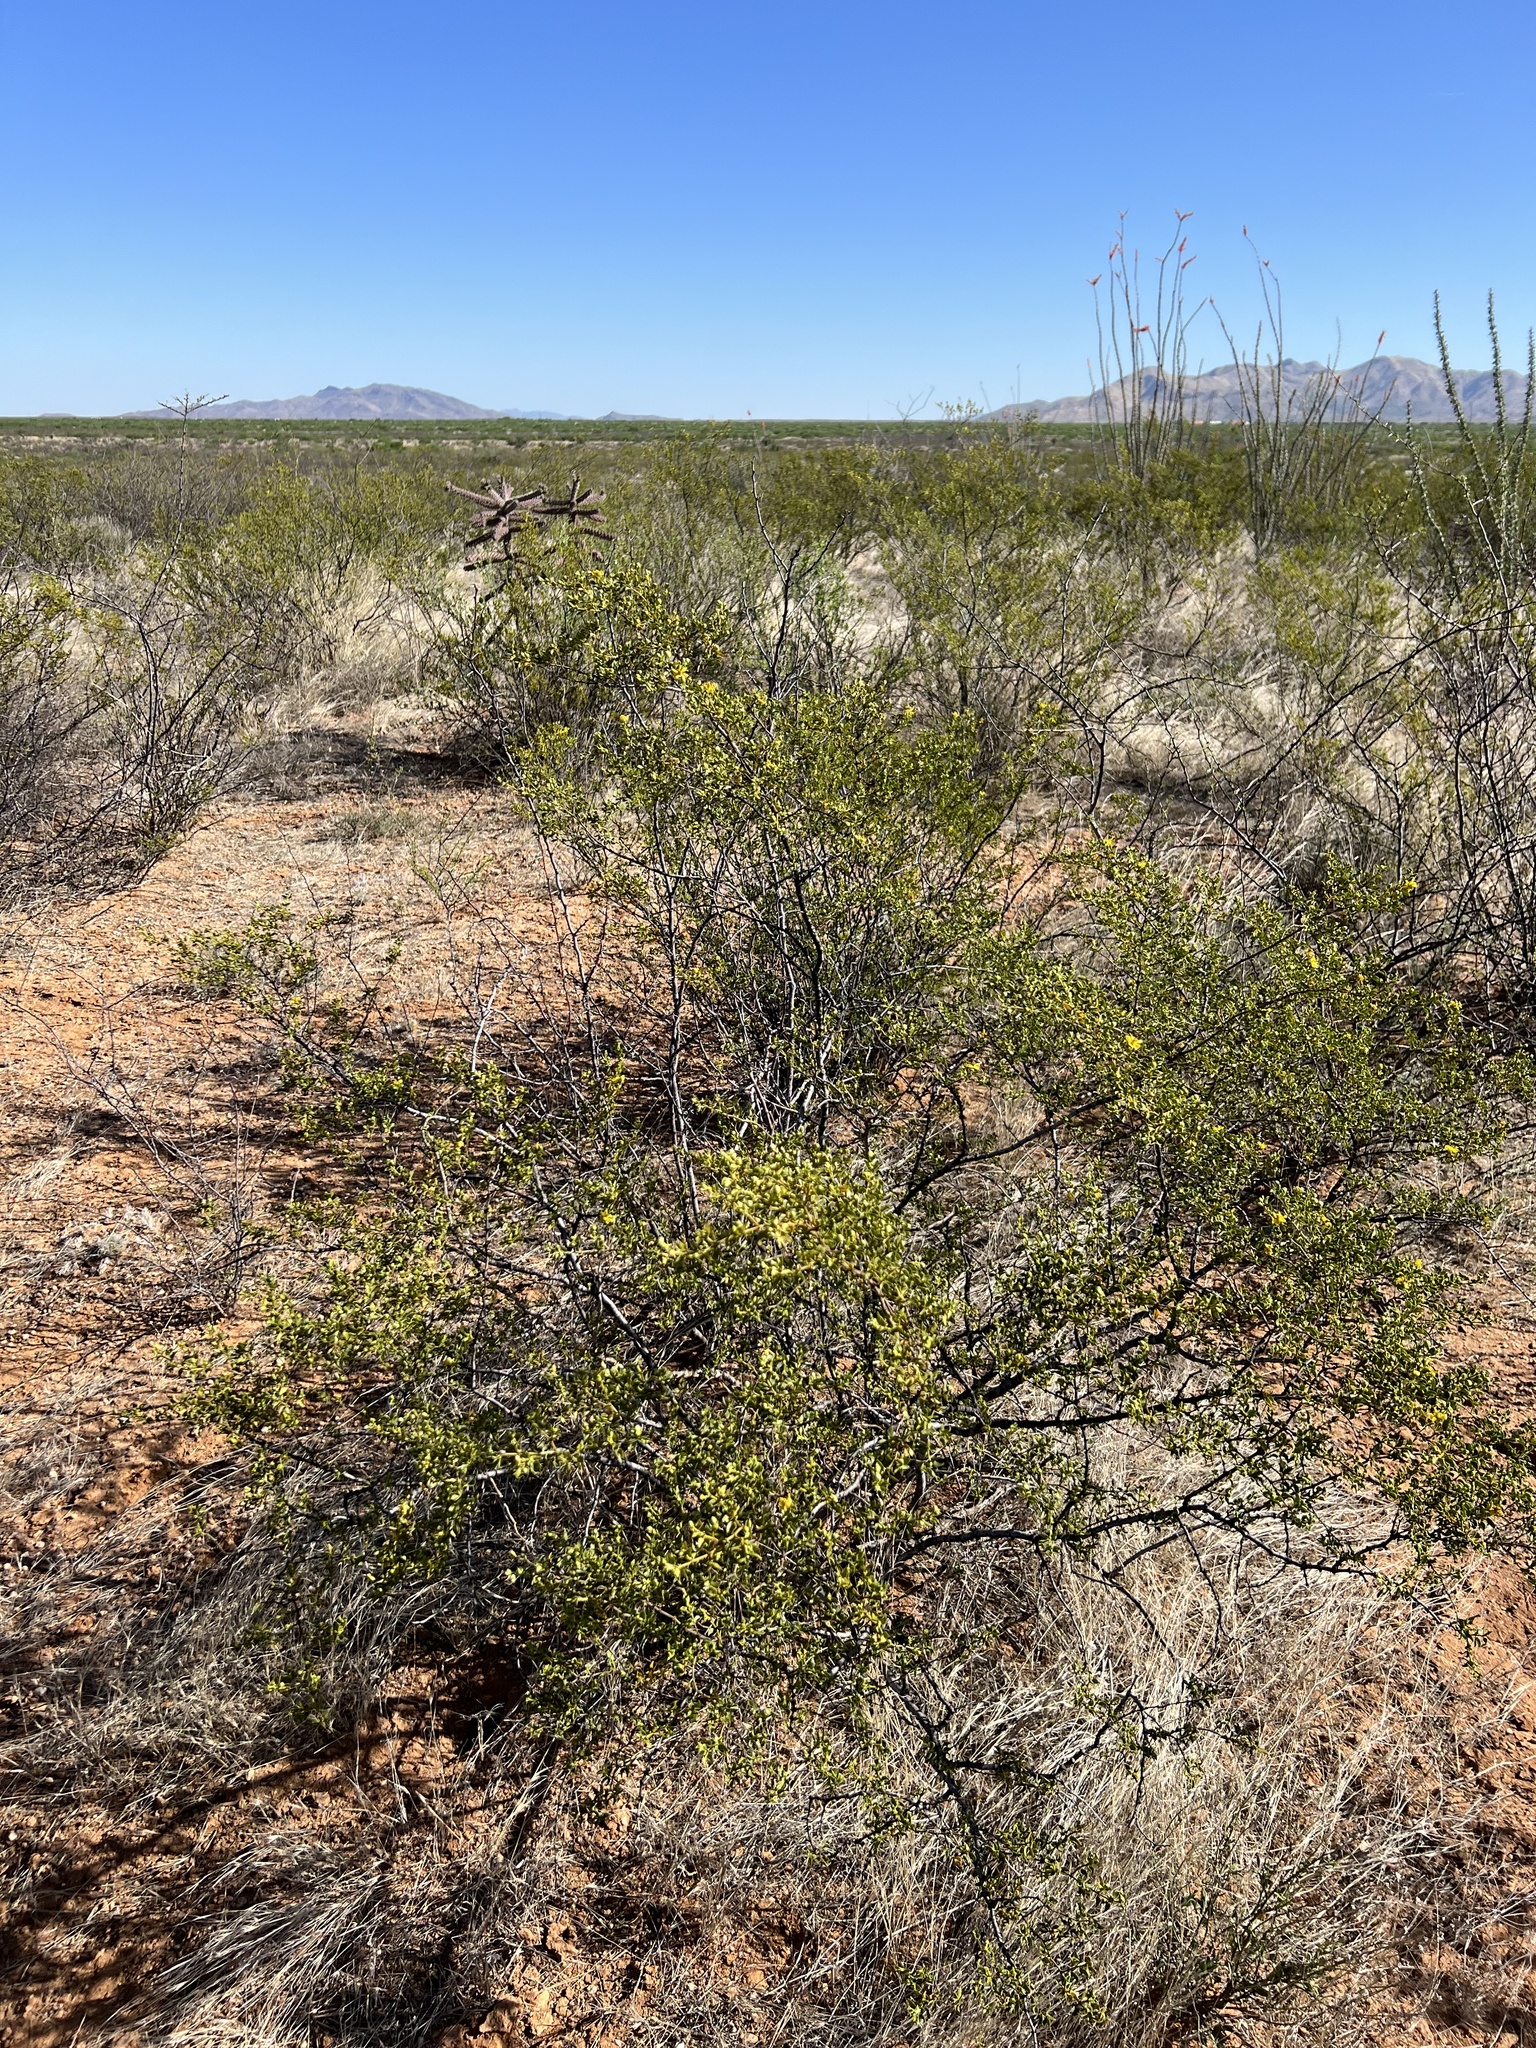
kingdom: Plantae
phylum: Tracheophyta
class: Magnoliopsida
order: Zygophyllales
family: Zygophyllaceae
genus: Larrea
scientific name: Larrea tridentata
